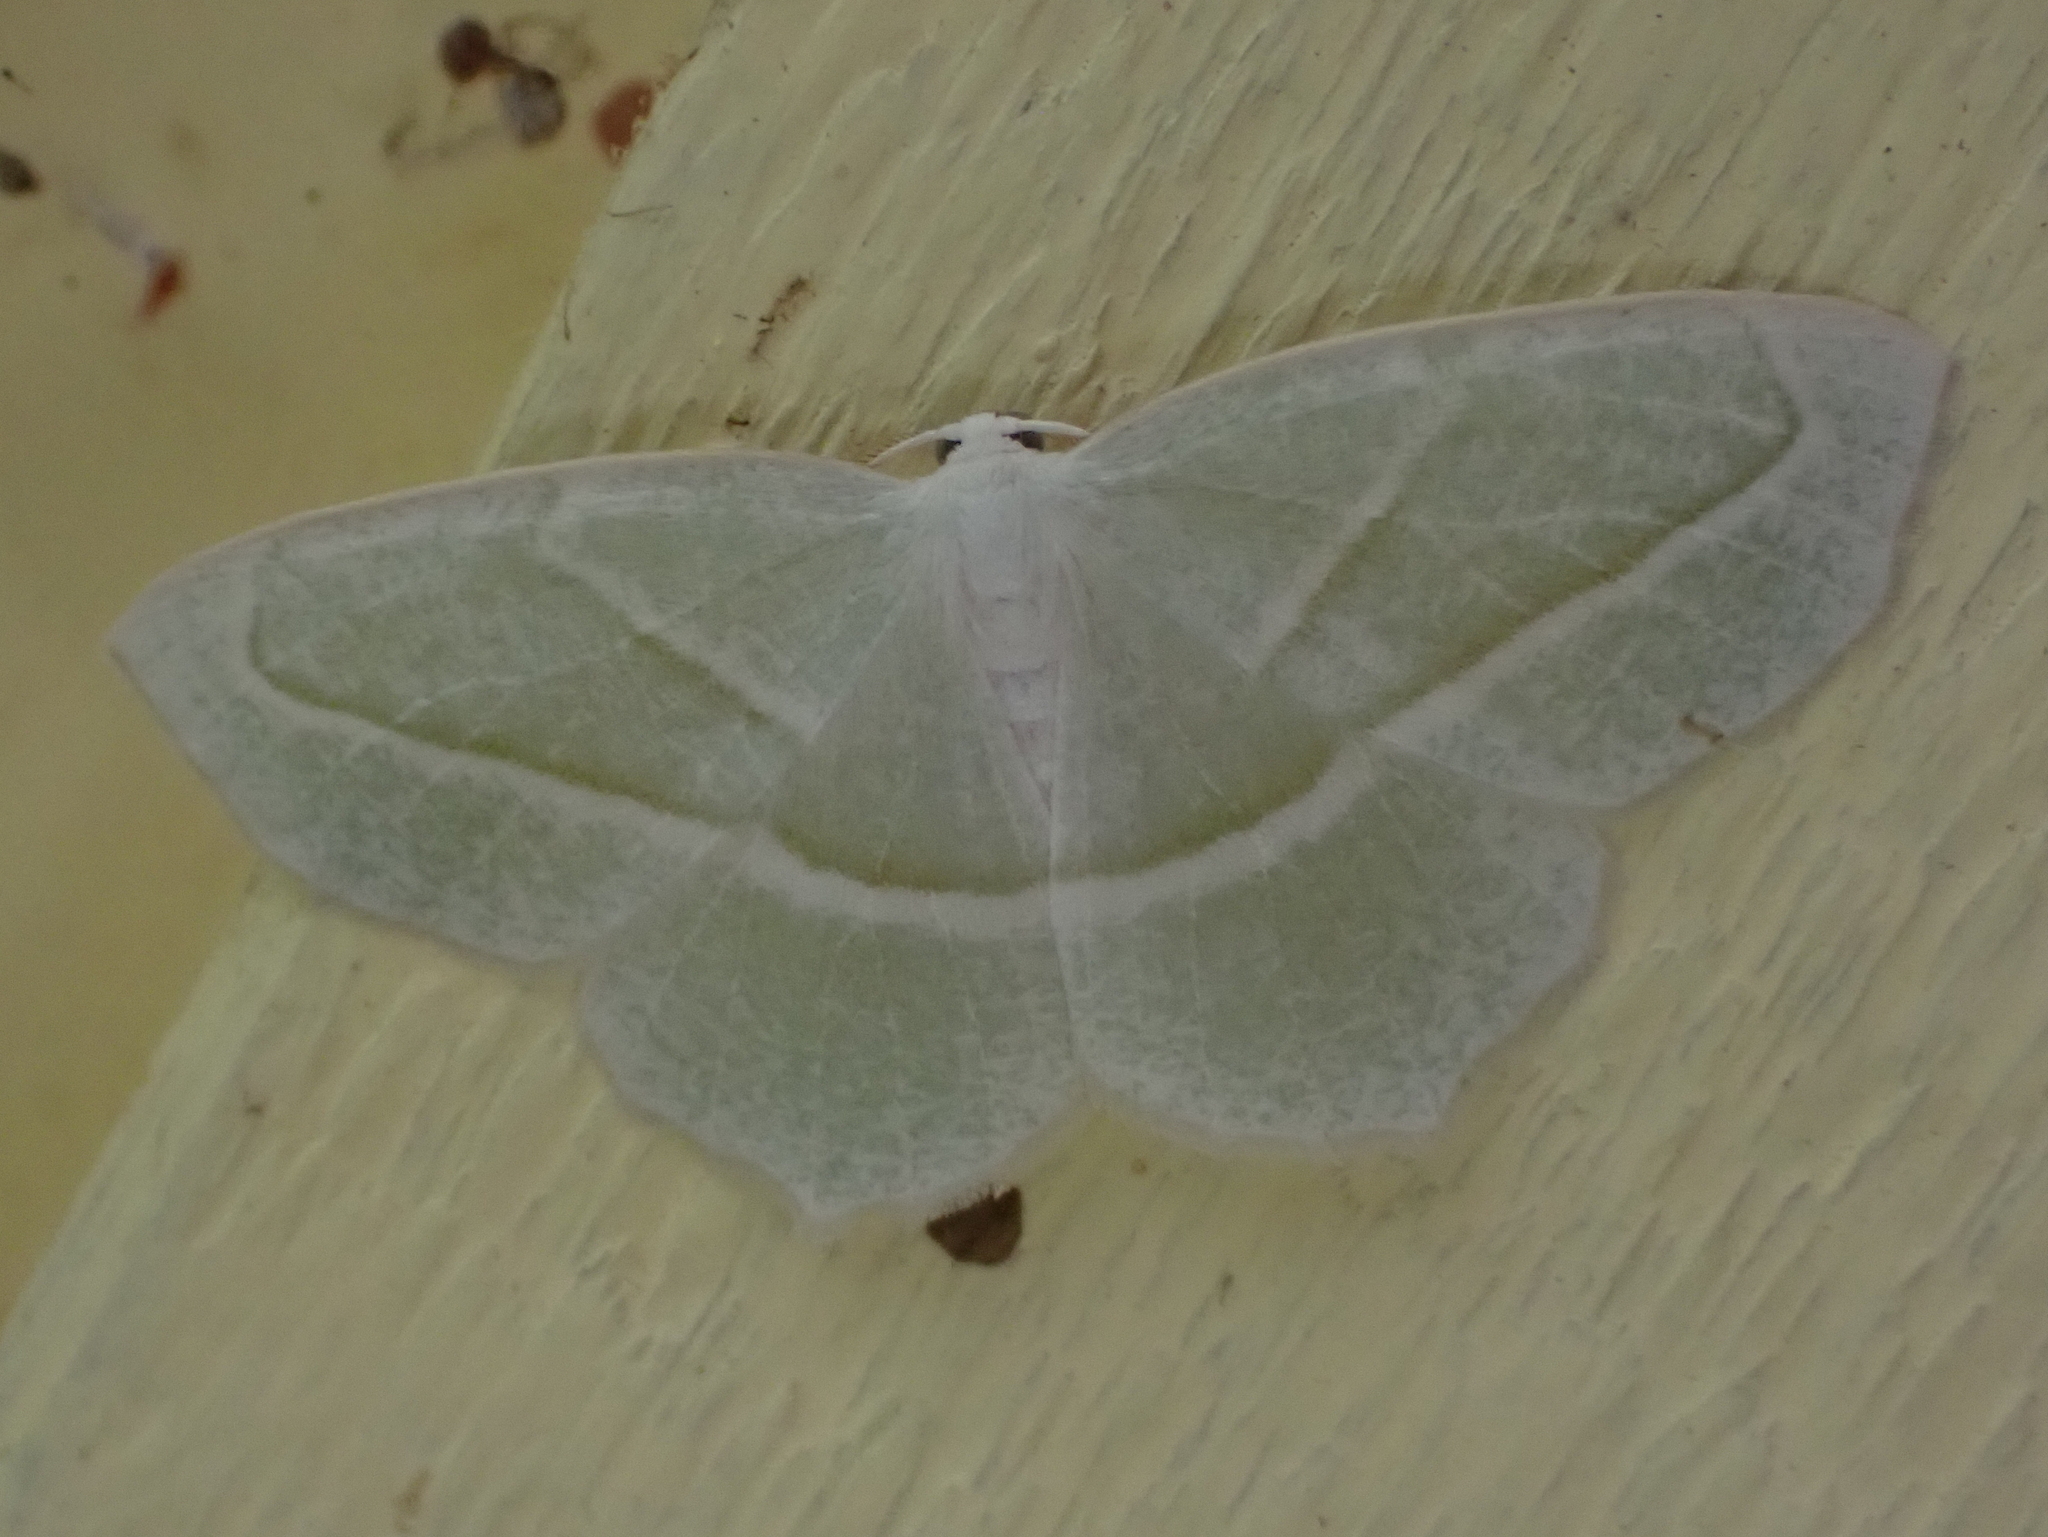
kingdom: Animalia
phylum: Arthropoda
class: Insecta
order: Lepidoptera
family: Geometridae
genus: Campaea
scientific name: Campaea perlata
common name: Fringed looper
